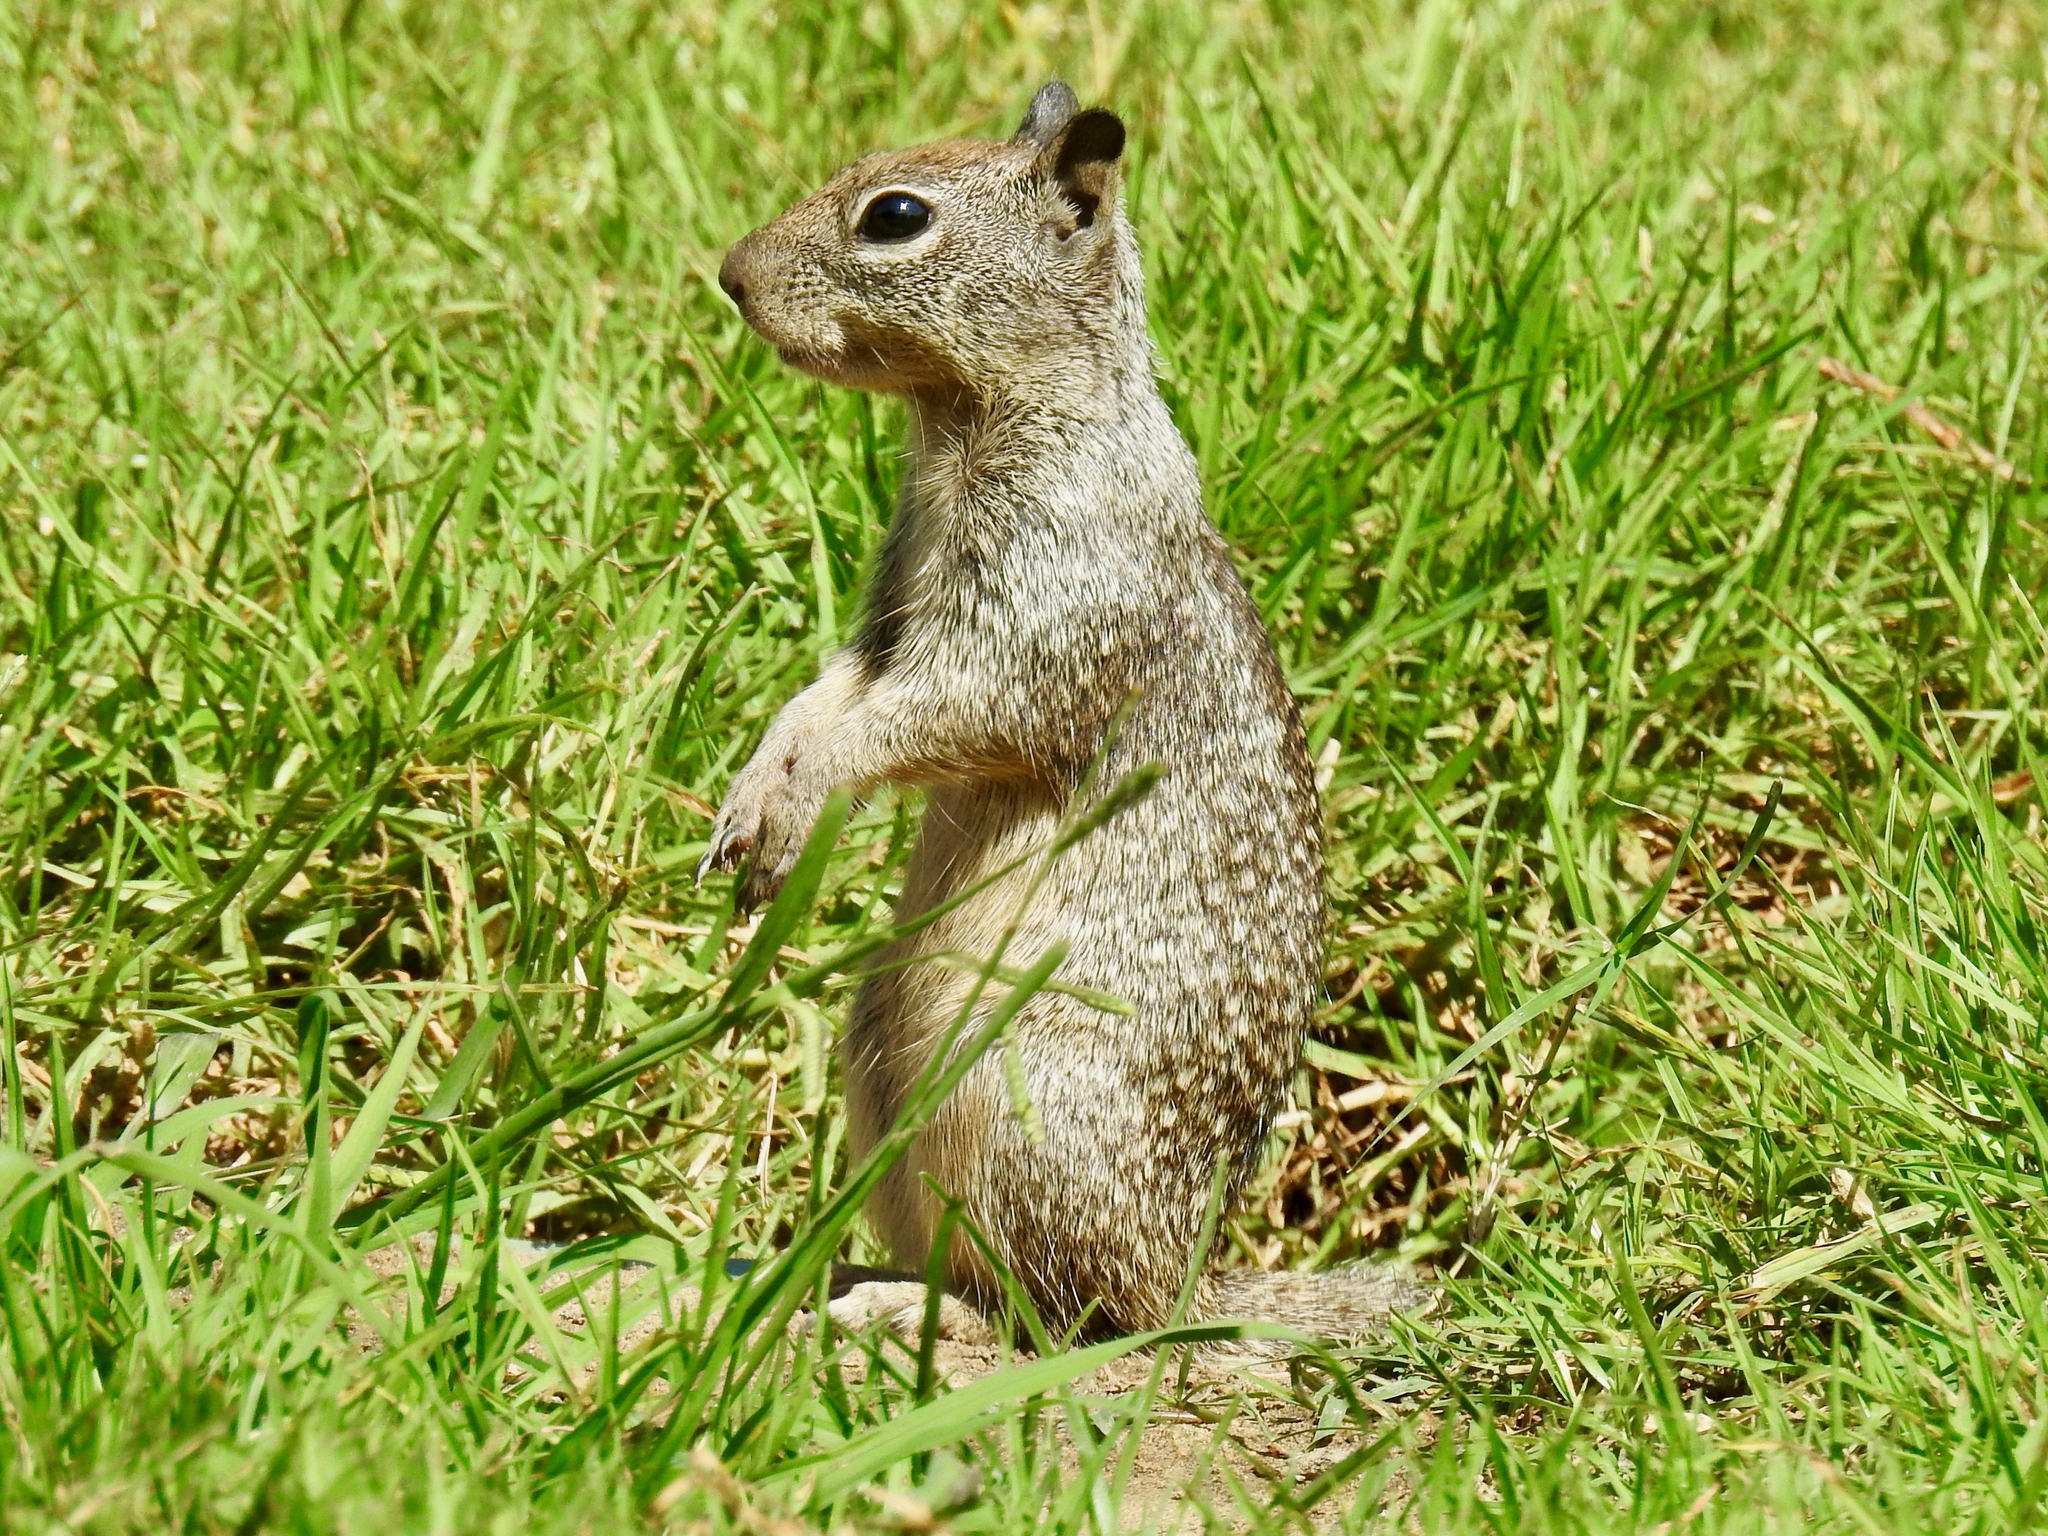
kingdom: Animalia
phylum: Chordata
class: Mammalia
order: Rodentia
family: Sciuridae
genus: Otospermophilus
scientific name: Otospermophilus beecheyi
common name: California ground squirrel
